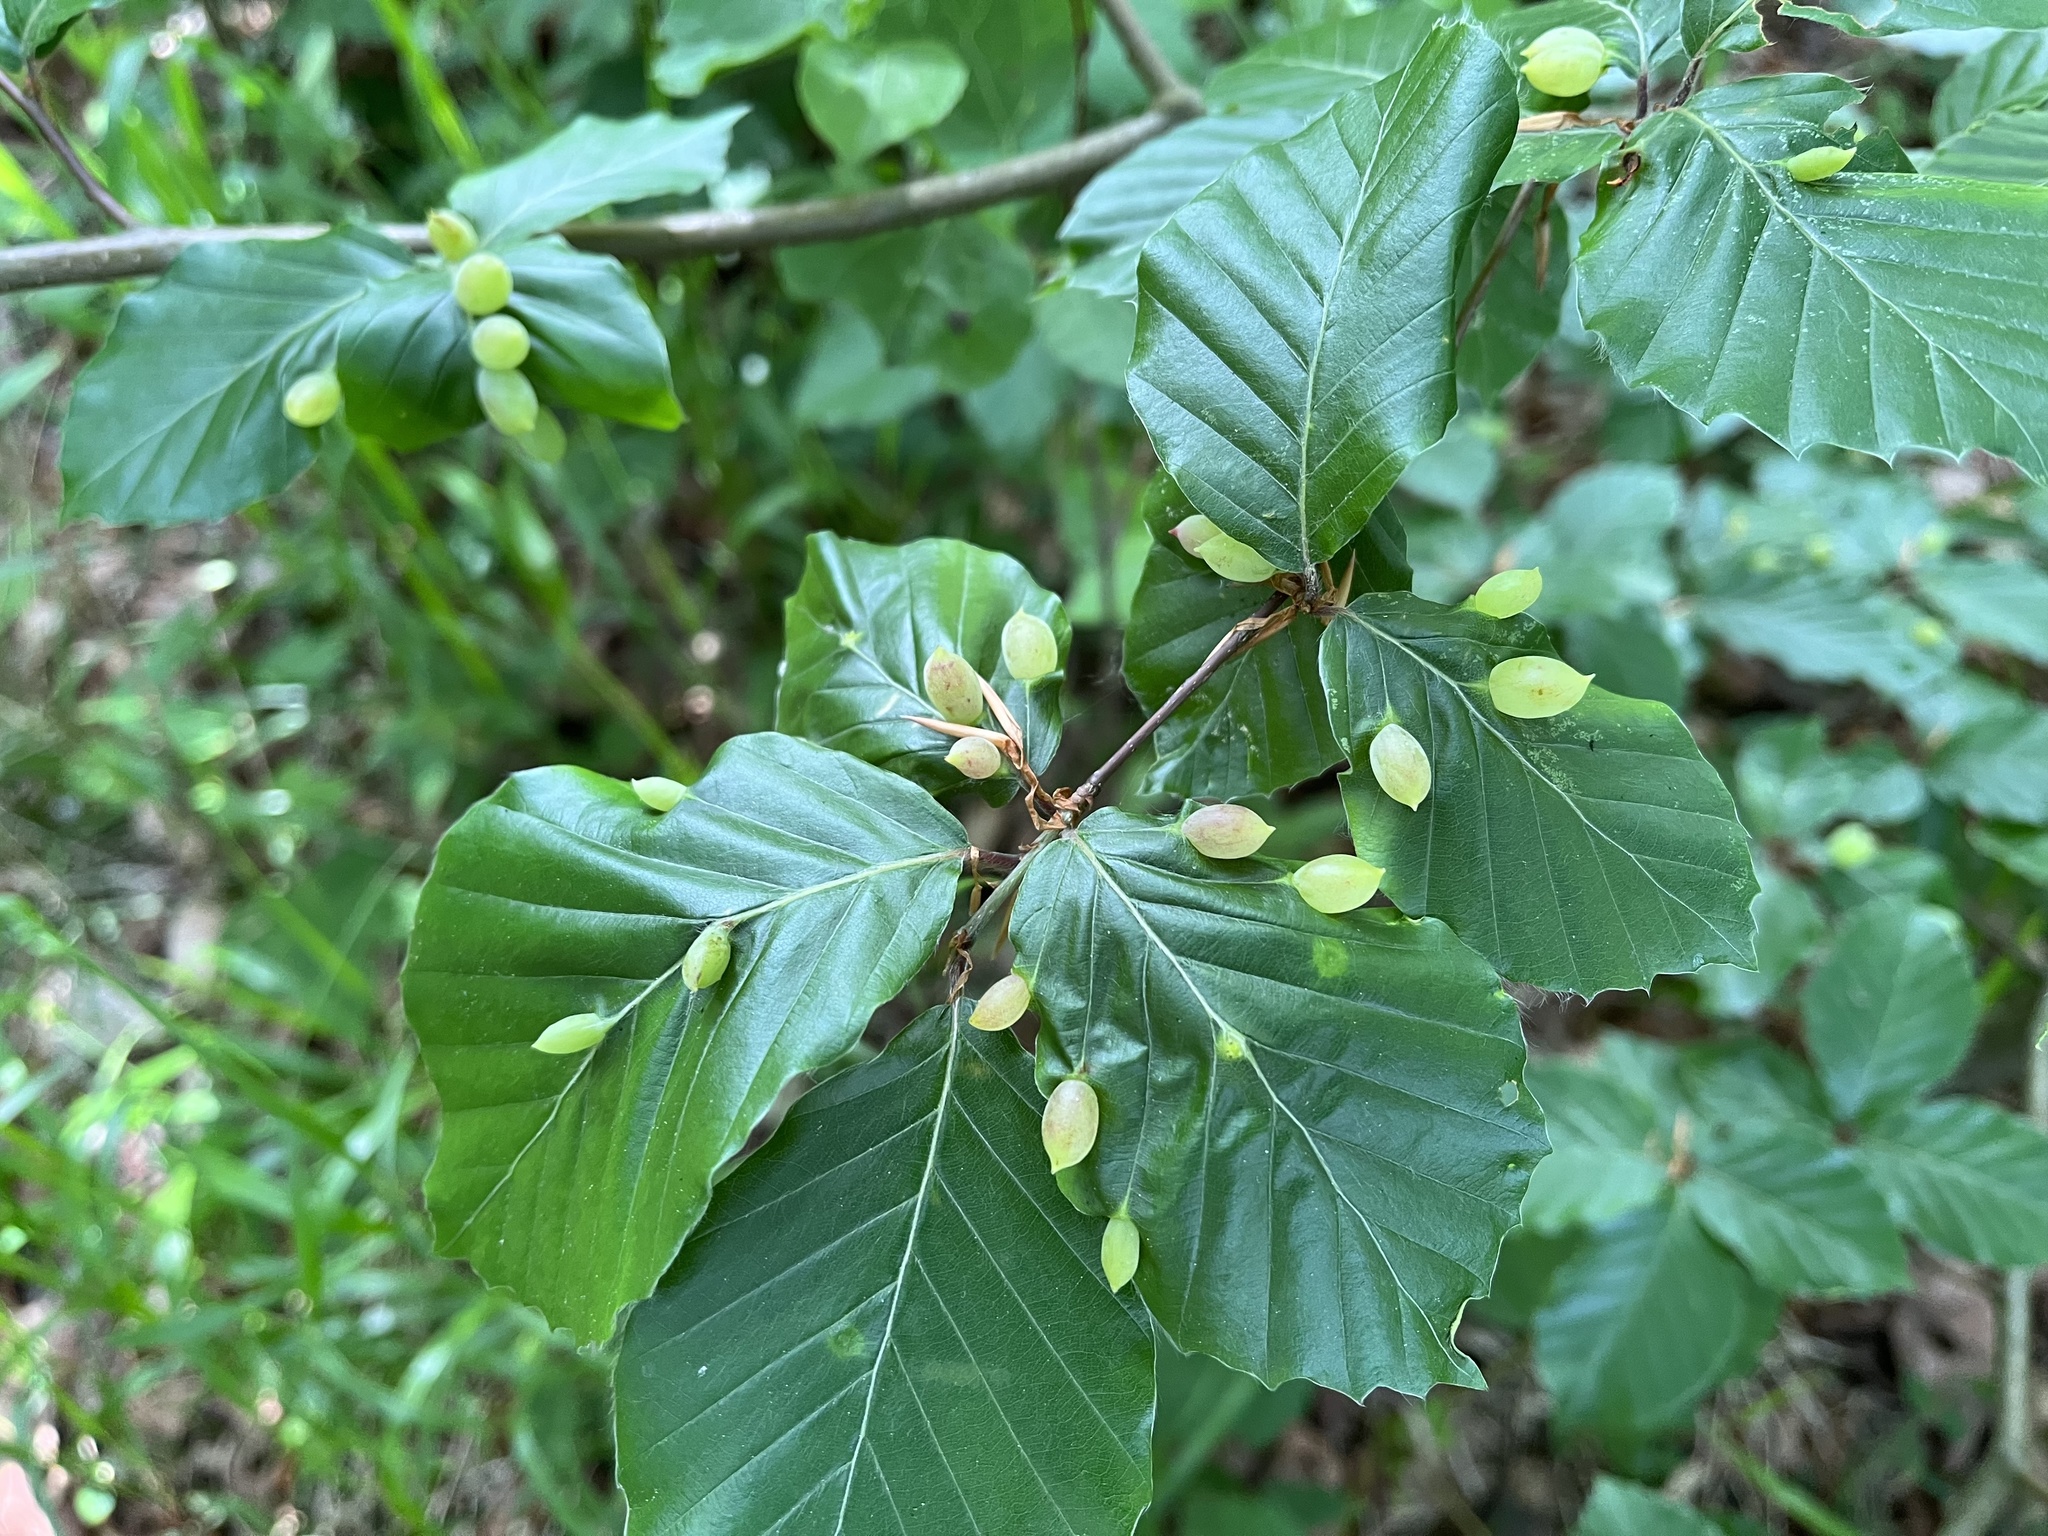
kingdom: Animalia
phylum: Arthropoda
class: Insecta
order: Diptera
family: Cecidomyiidae
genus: Mikiola
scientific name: Mikiola fagi
